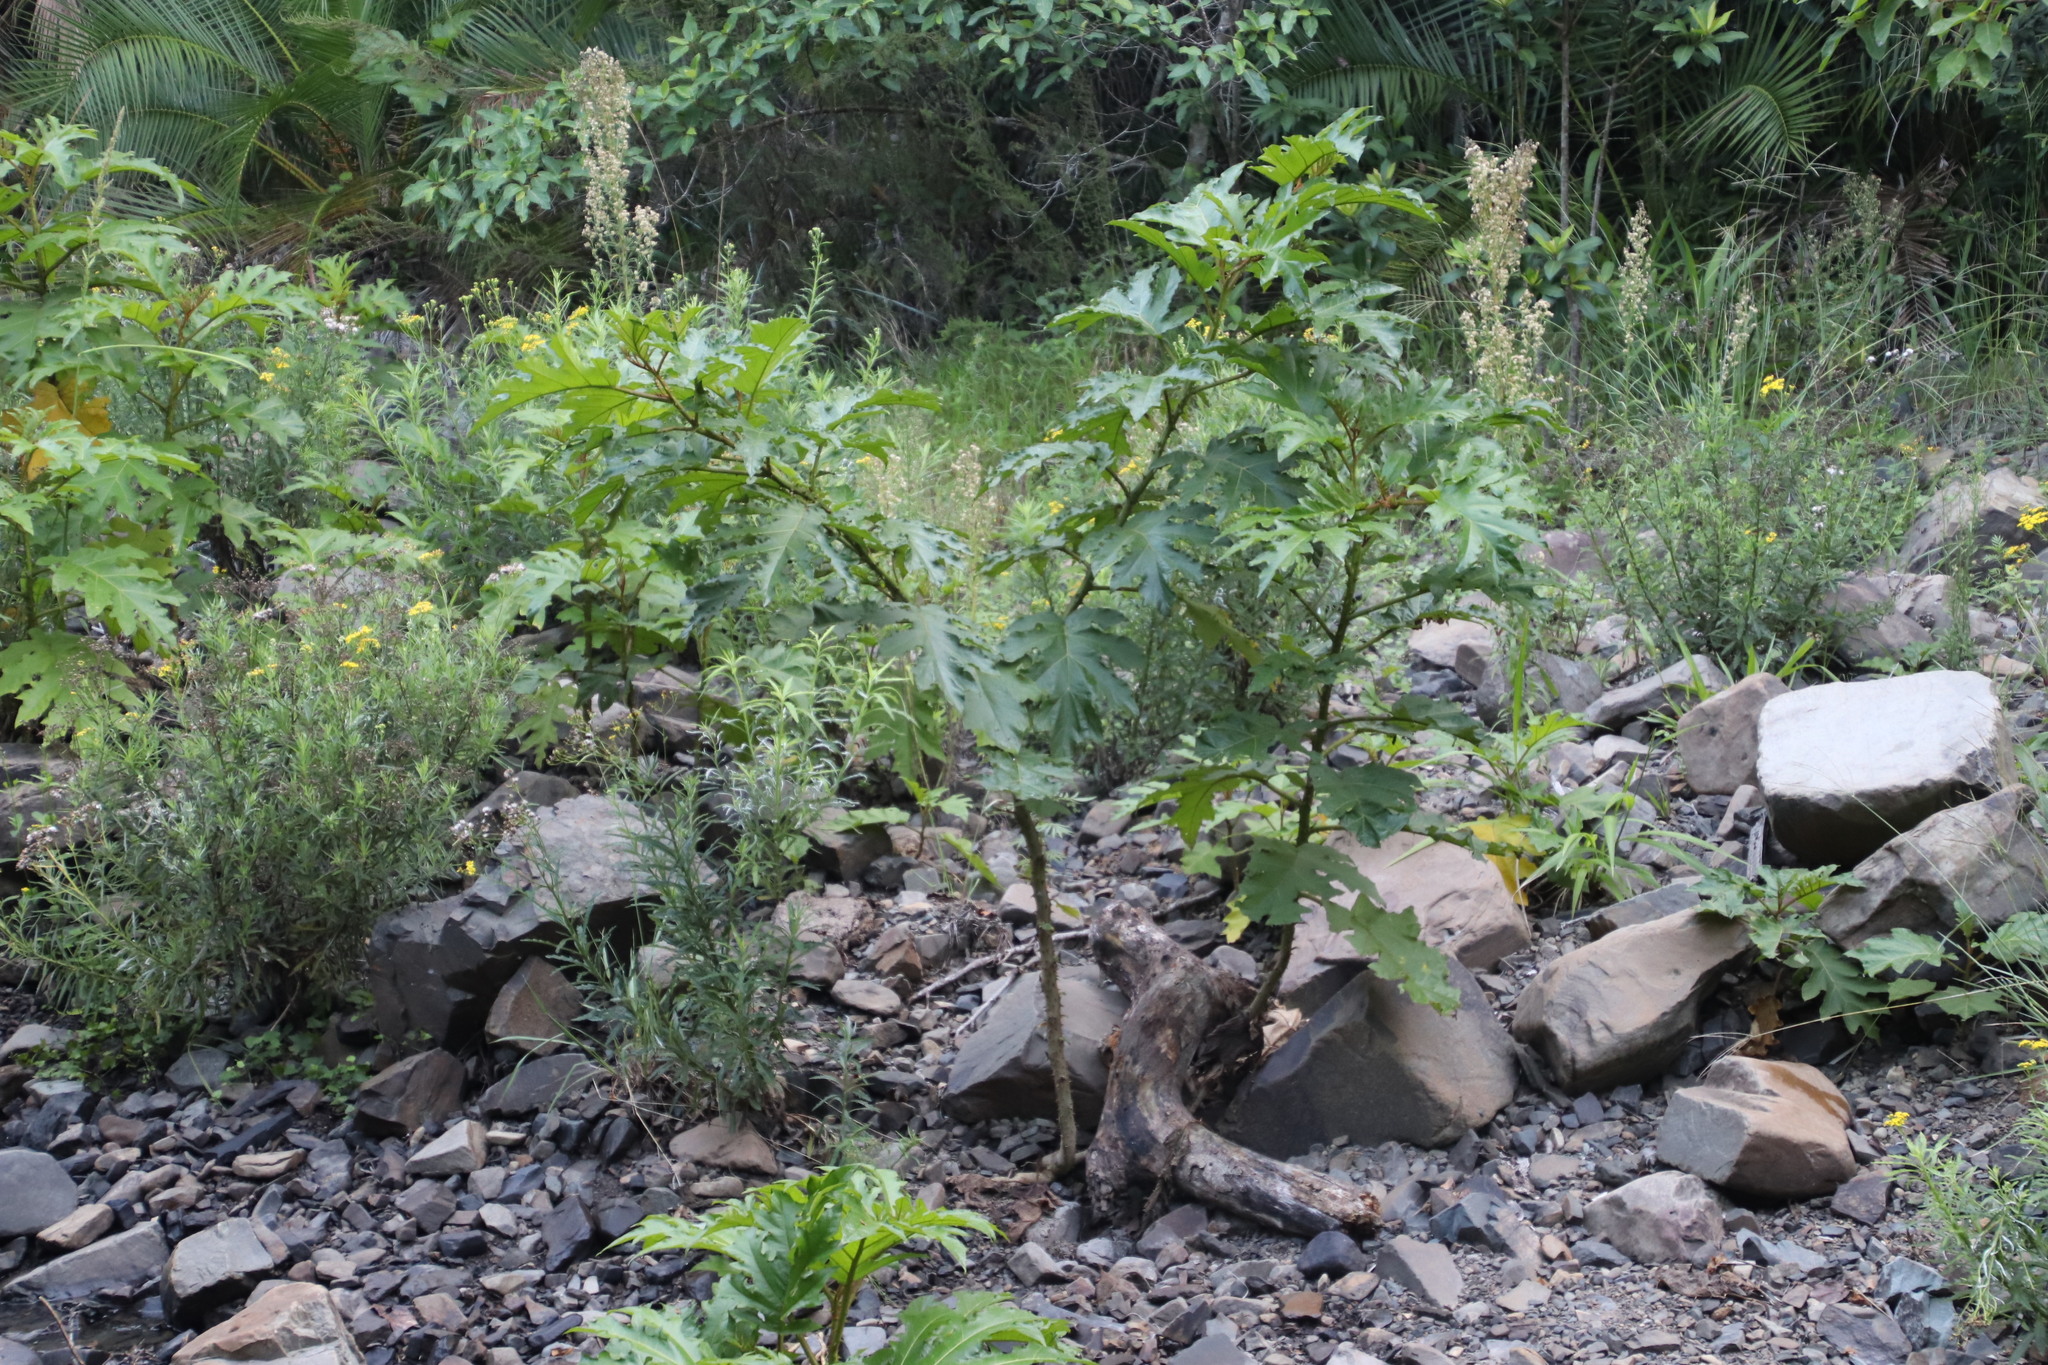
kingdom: Plantae
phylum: Tracheophyta
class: Magnoliopsida
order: Solanales
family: Solanaceae
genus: Solanum
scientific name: Solanum chrysotrichum
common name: Nightshade
